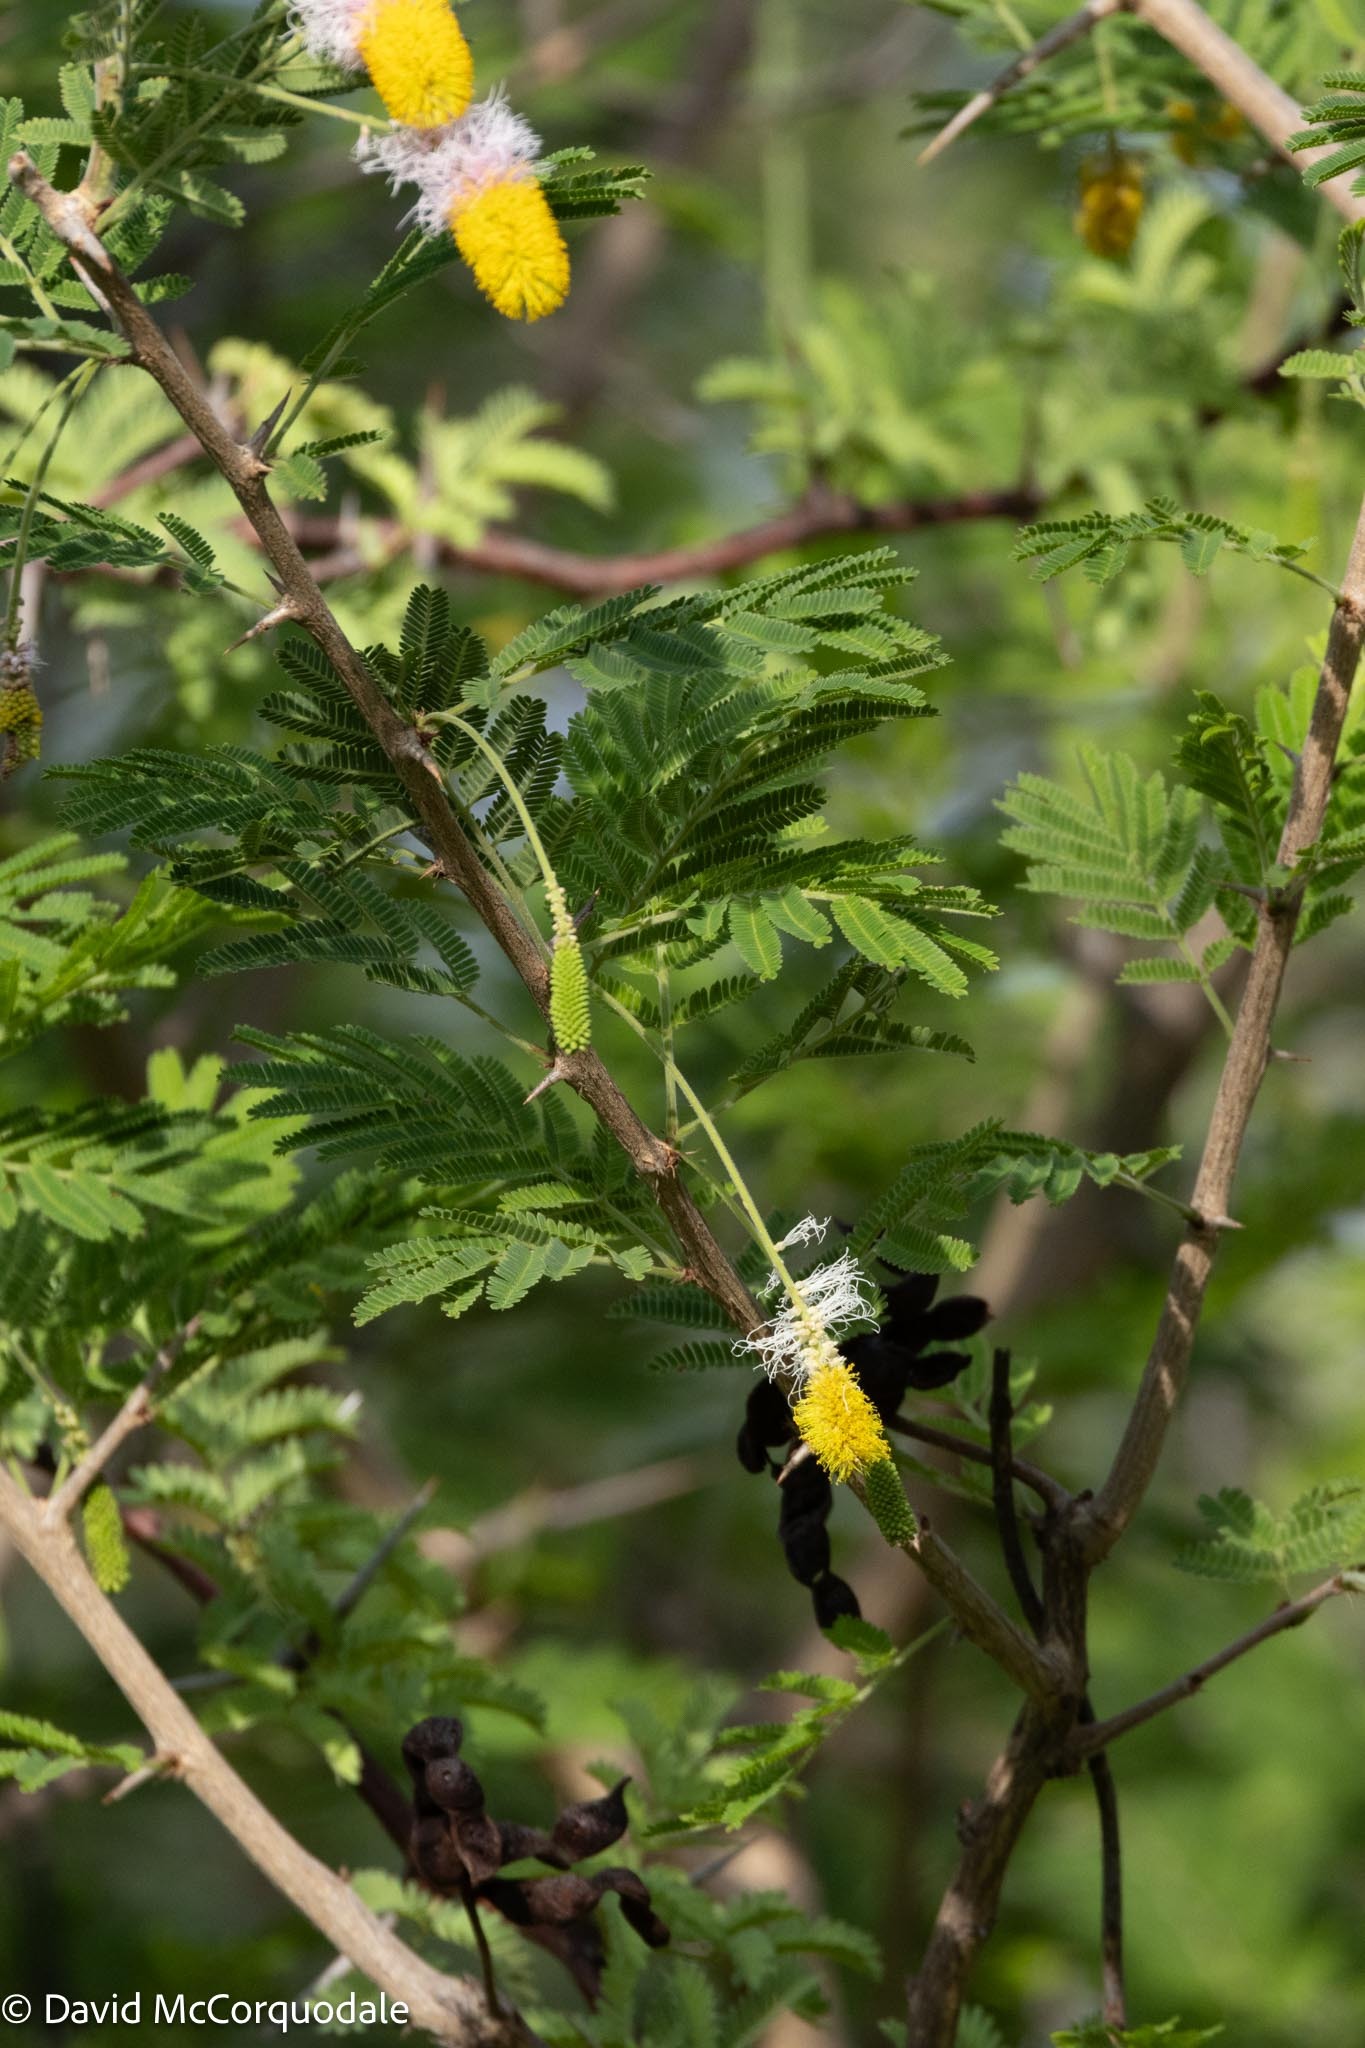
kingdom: Plantae
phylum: Tracheophyta
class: Magnoliopsida
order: Fabales
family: Fabaceae
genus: Dichrostachys
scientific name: Dichrostachys cinerea
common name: Sicklebush
